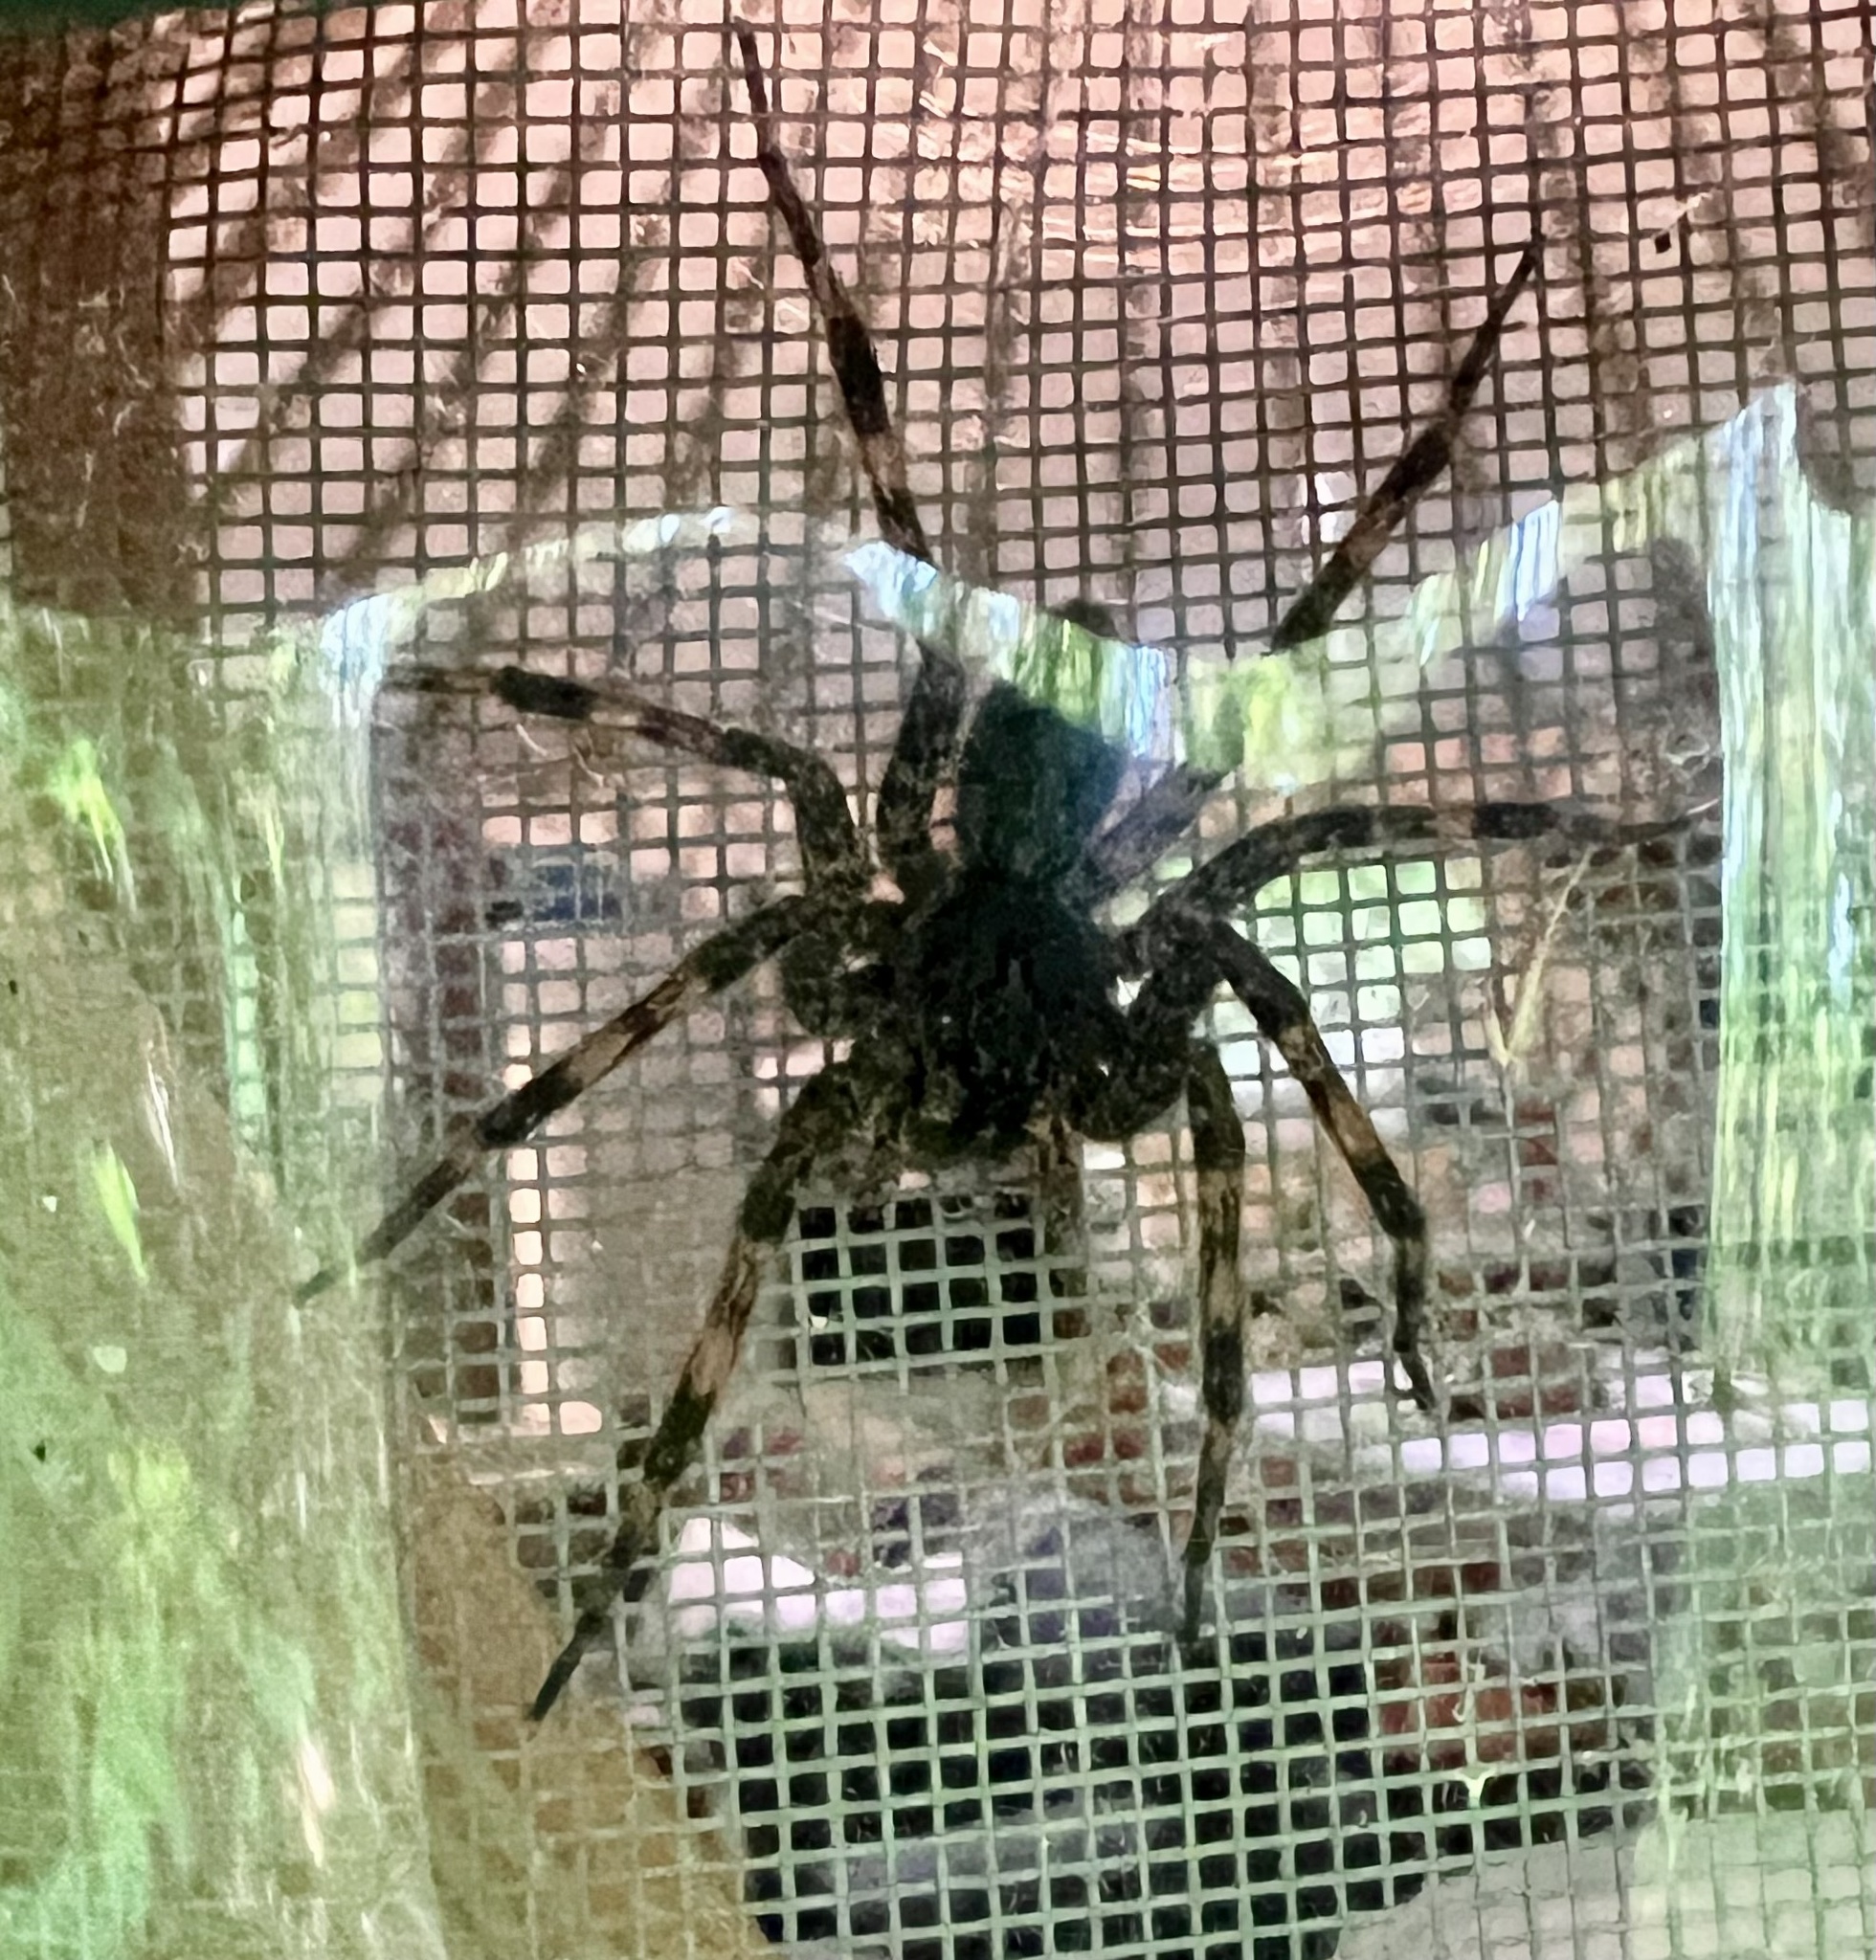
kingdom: Animalia
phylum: Arthropoda
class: Arachnida
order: Araneae
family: Pisauridae
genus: Dolomedes
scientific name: Dolomedes tenebrosus
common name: Dark fishing spider
